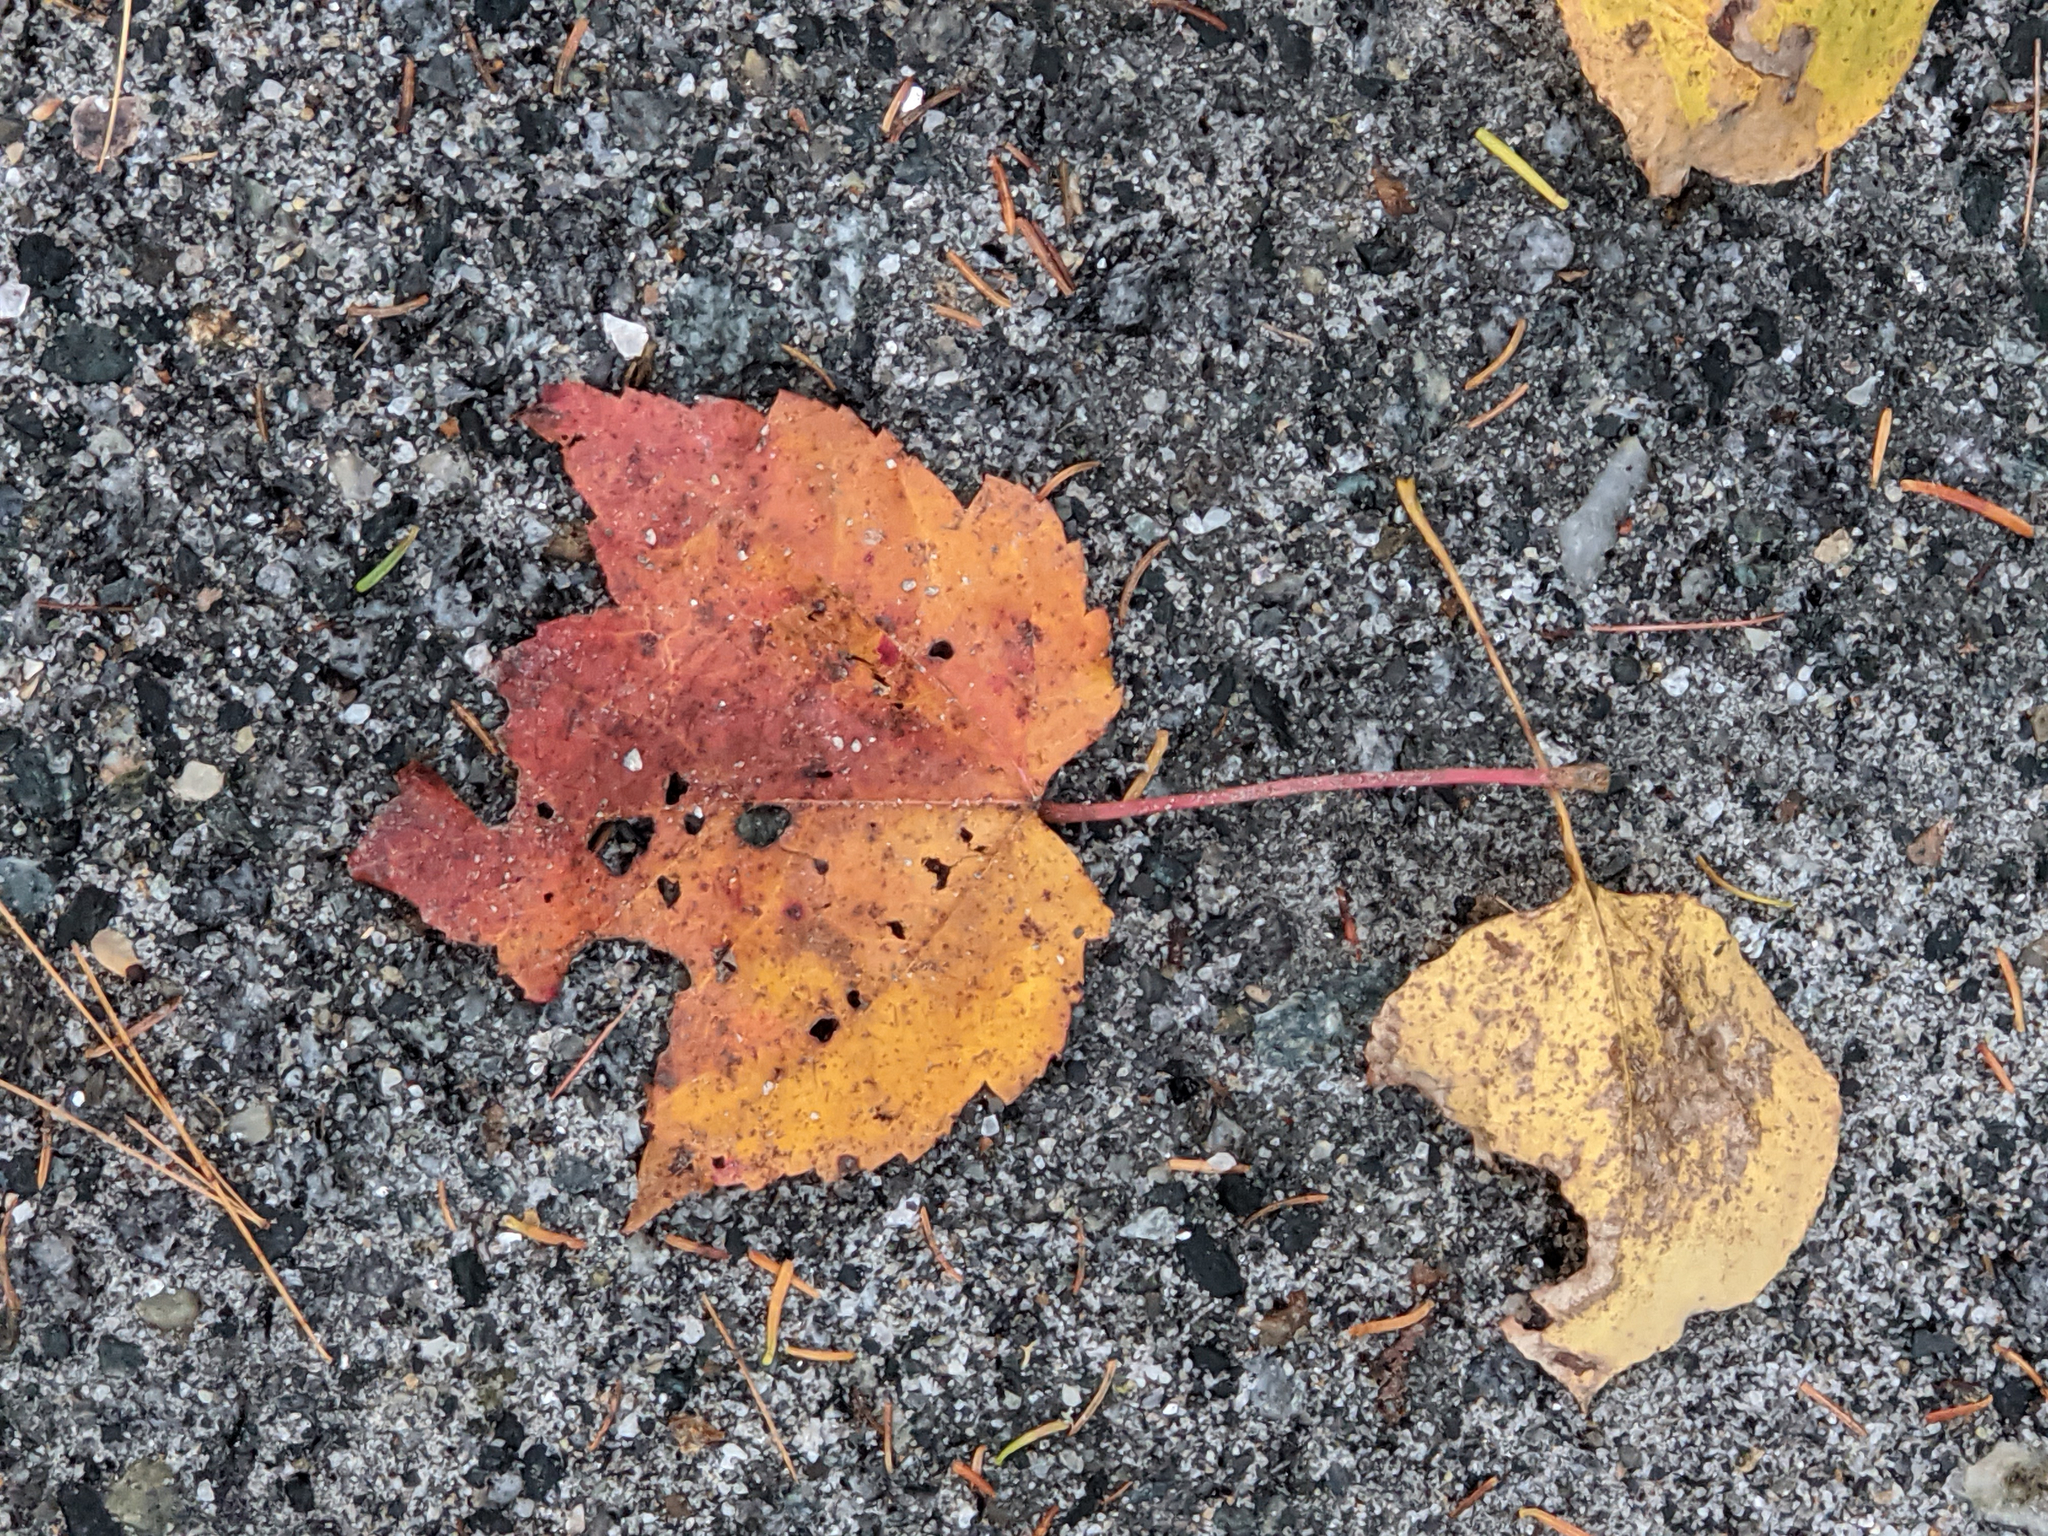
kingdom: Plantae
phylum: Tracheophyta
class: Magnoliopsida
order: Sapindales
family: Sapindaceae
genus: Acer
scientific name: Acer rubrum
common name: Red maple
